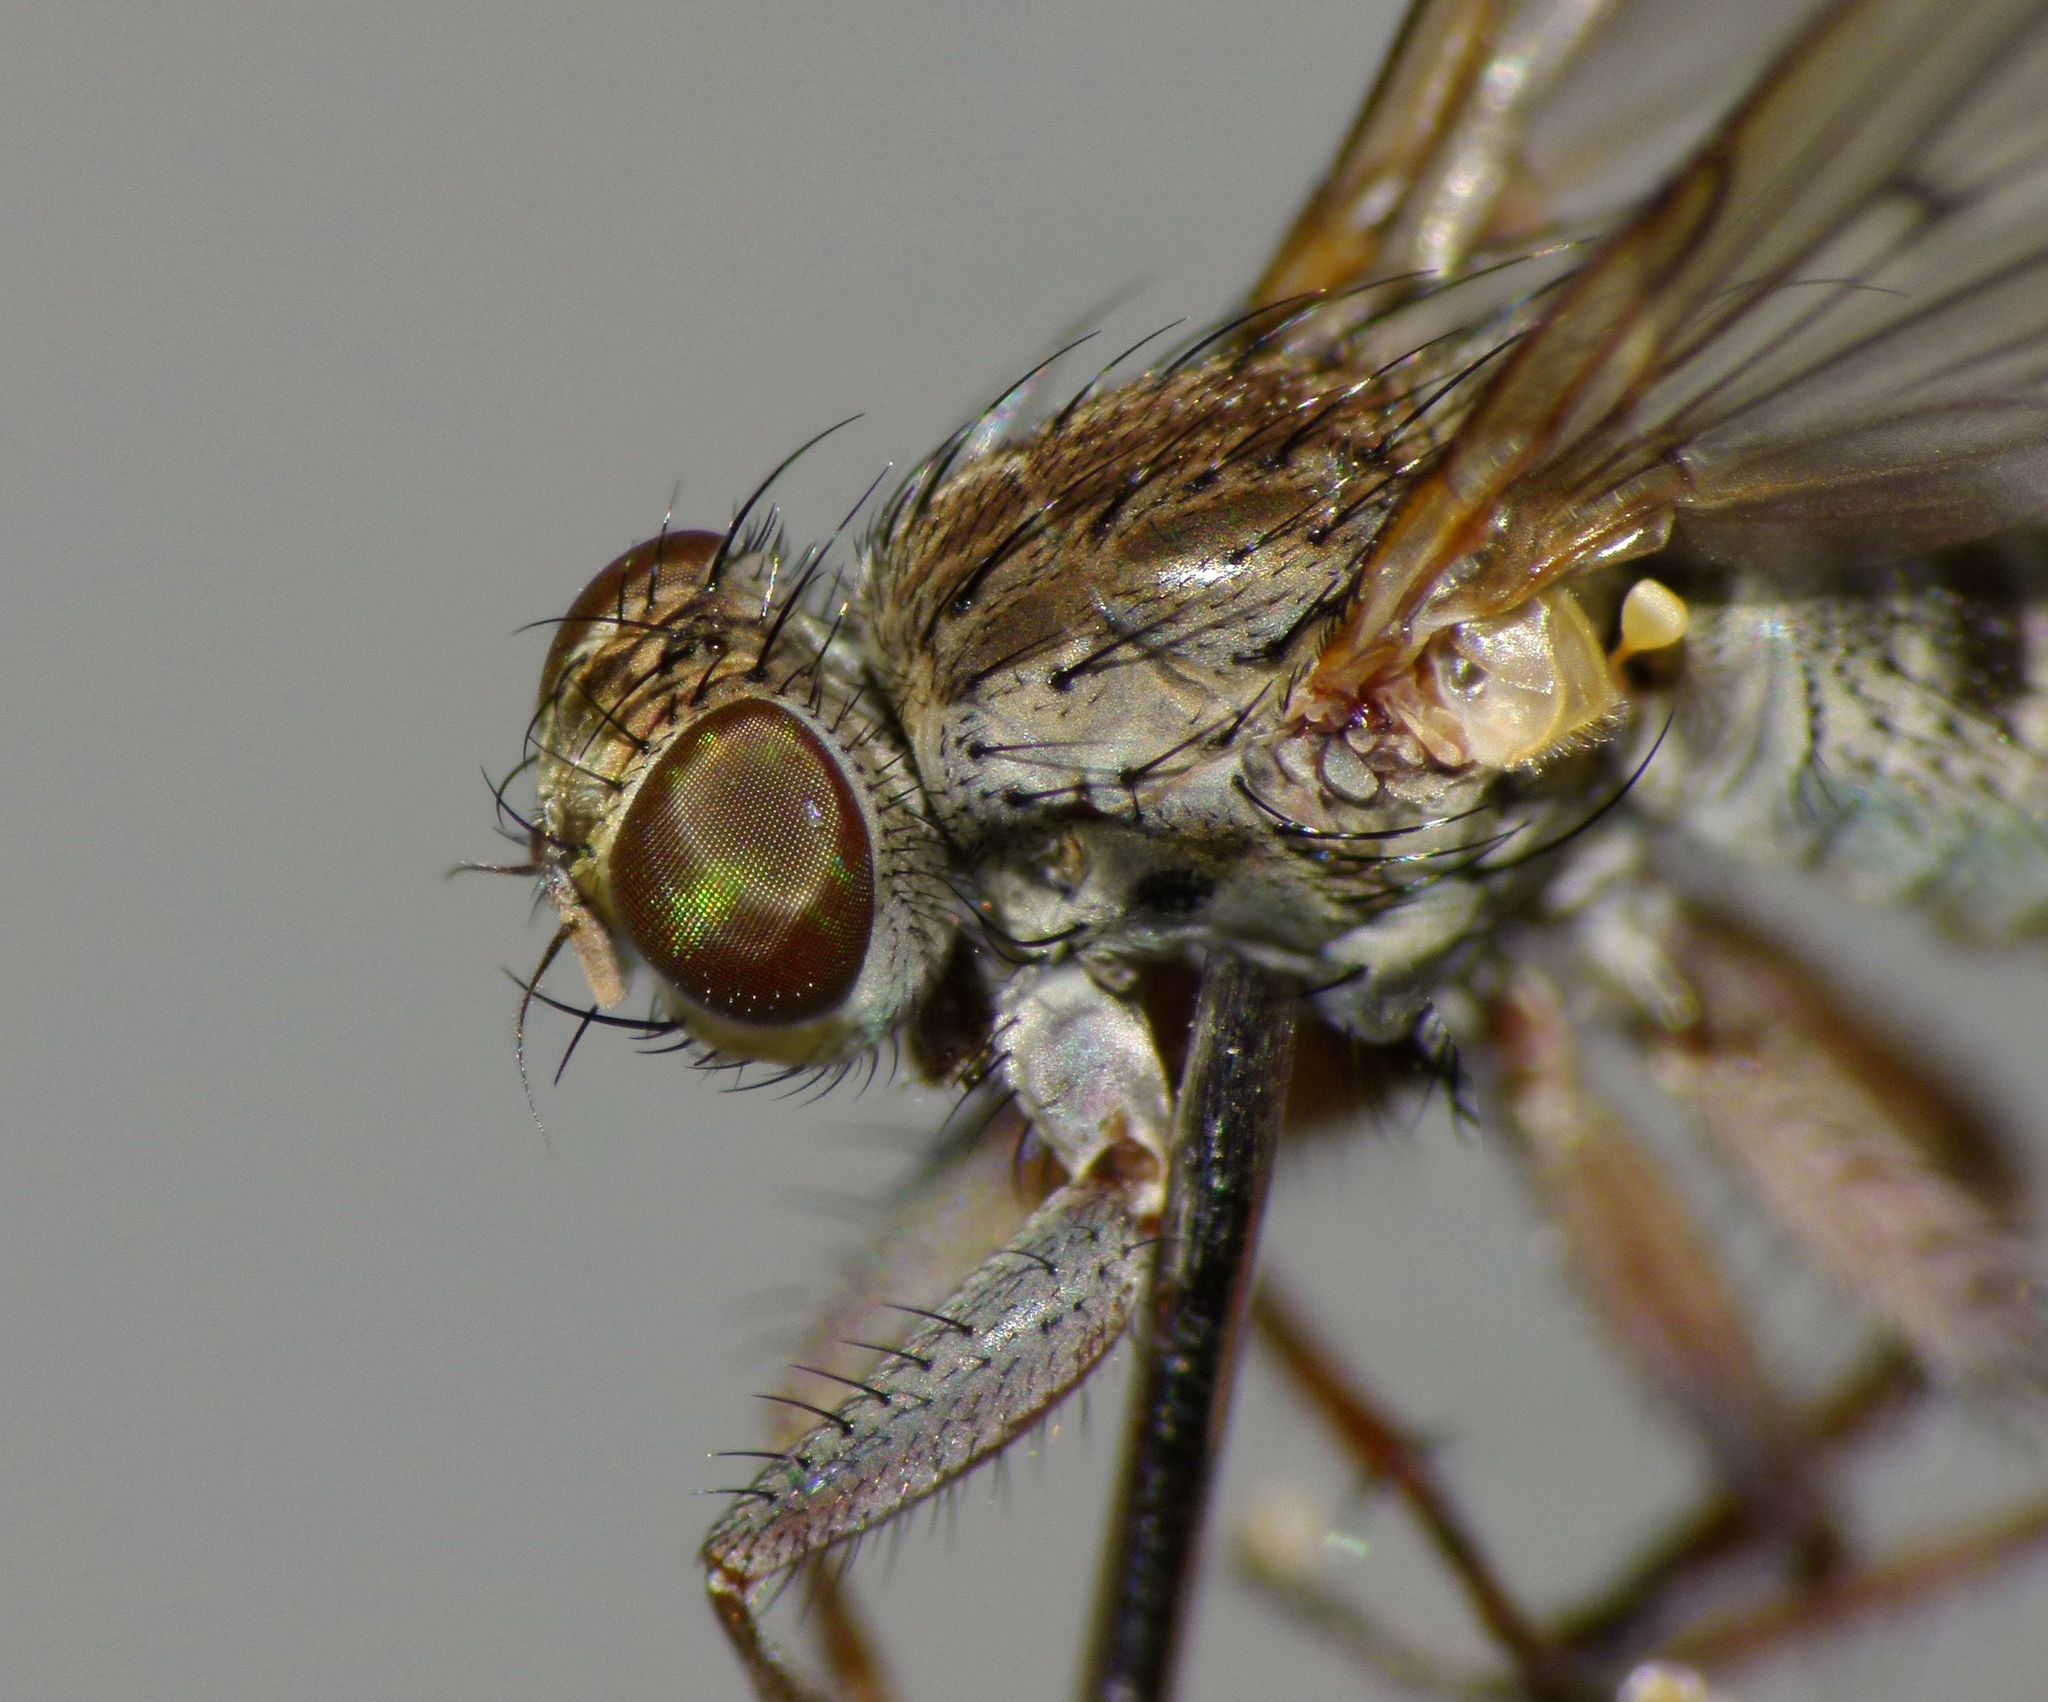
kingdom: Animalia
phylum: Arthropoda
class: Insecta
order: Diptera
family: Muscidae
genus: Limnohelina
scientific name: Limnohelina uniformis
